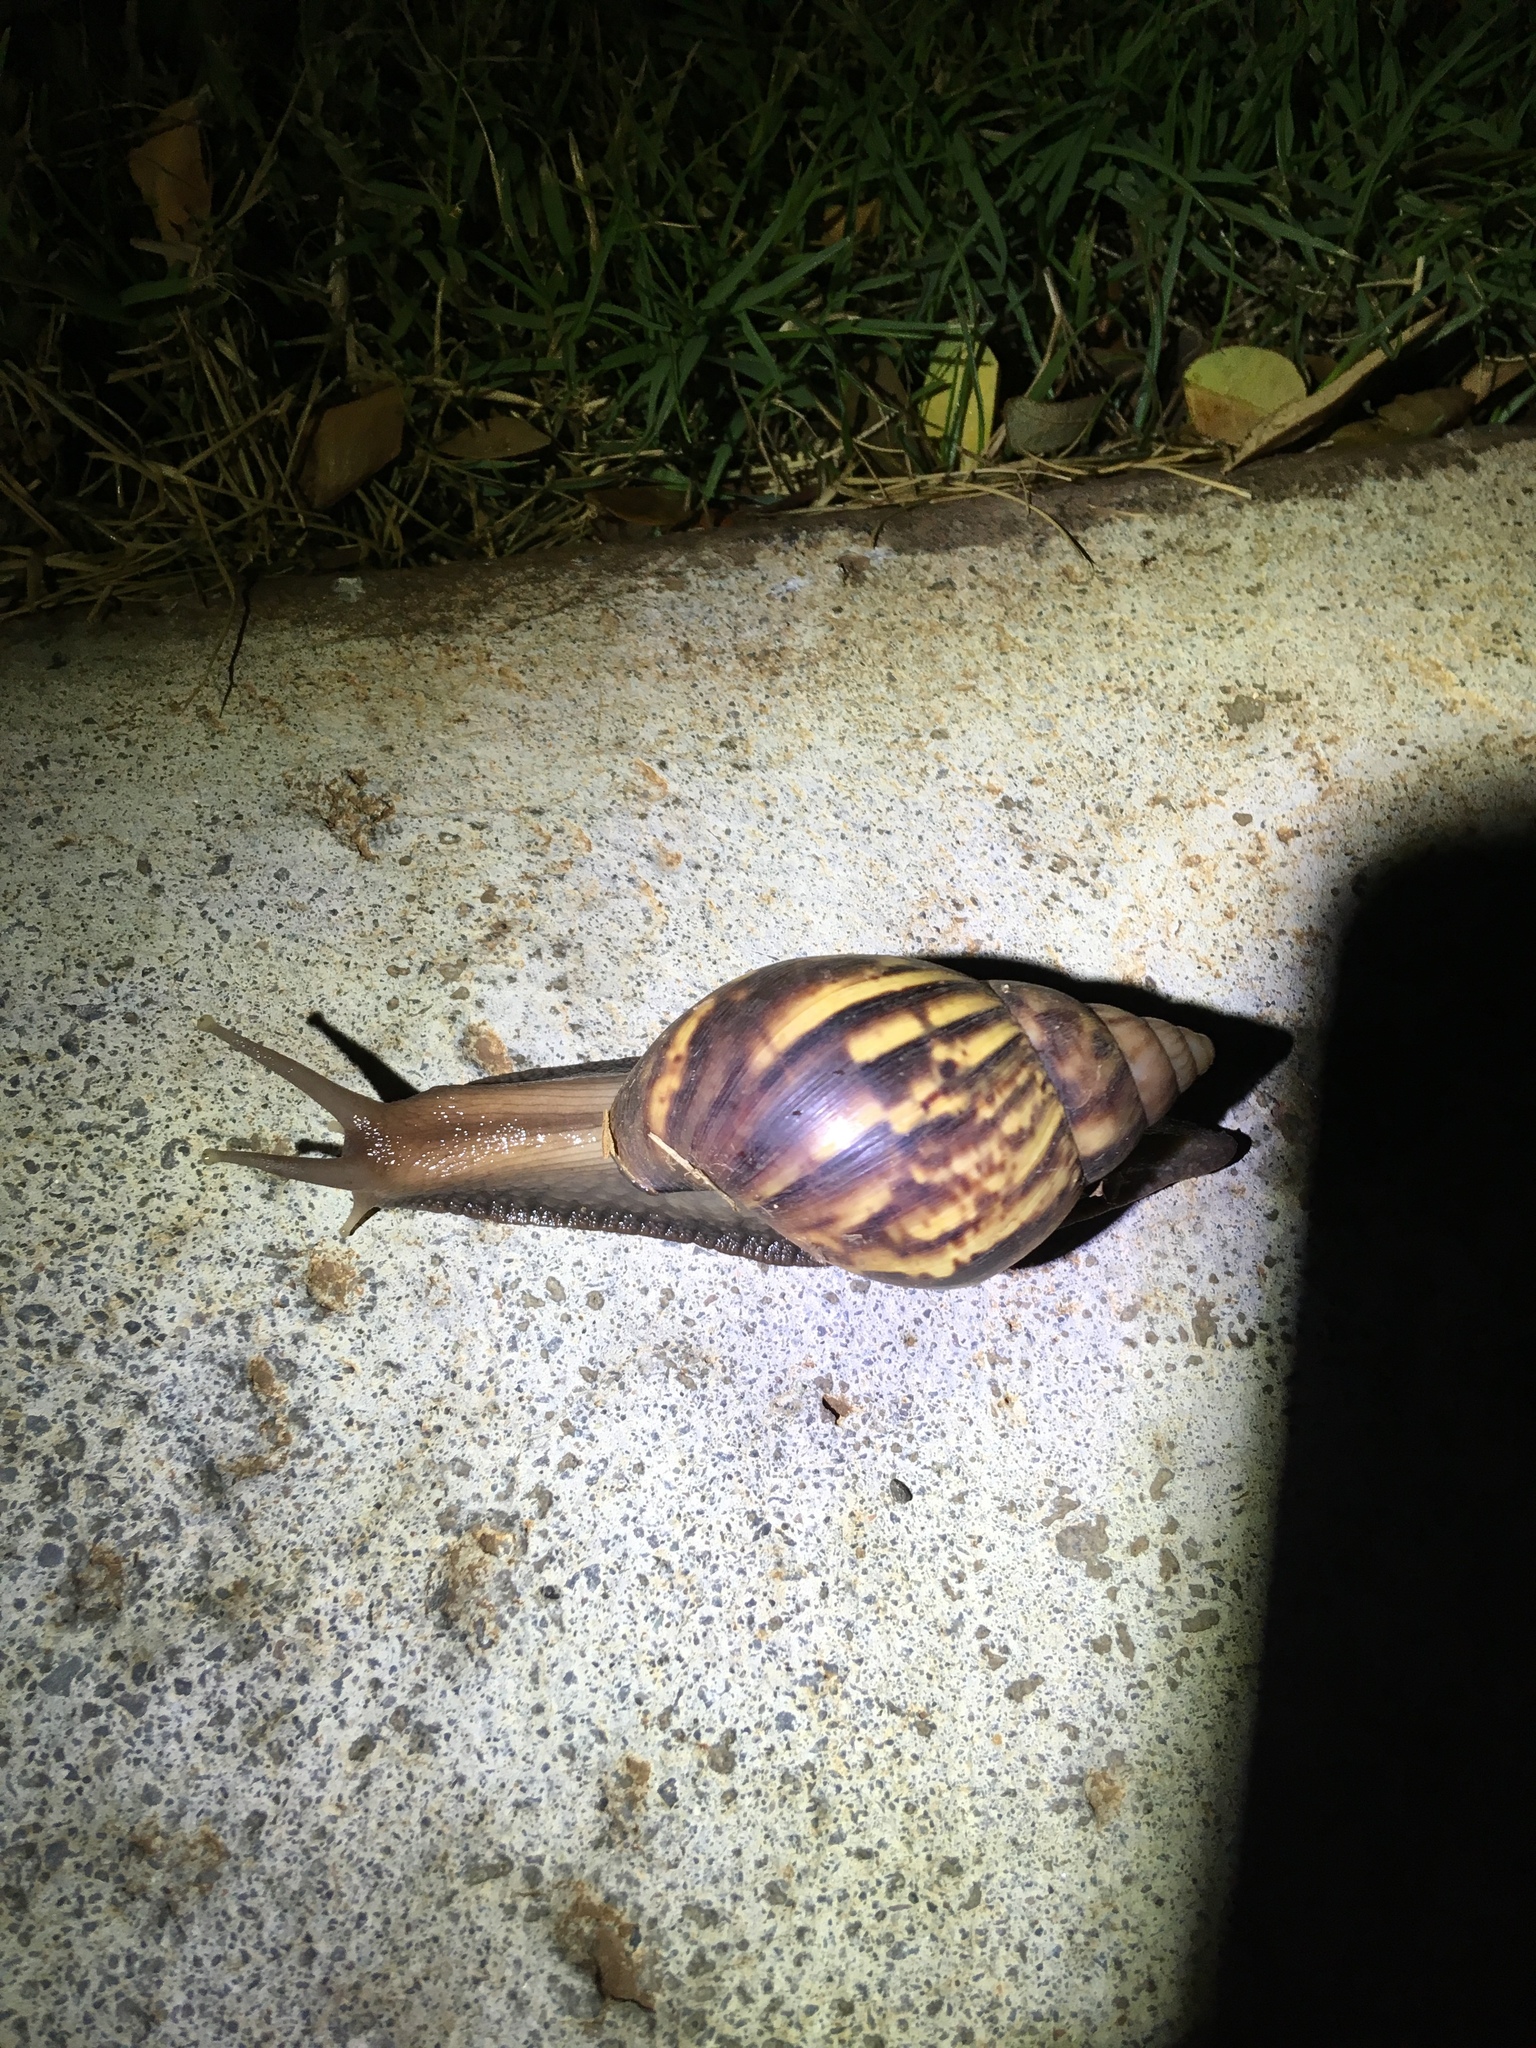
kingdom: Animalia
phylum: Mollusca
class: Gastropoda
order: Stylommatophora
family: Achatinidae
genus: Lissachatina
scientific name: Lissachatina fulica
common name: Giant african snail
